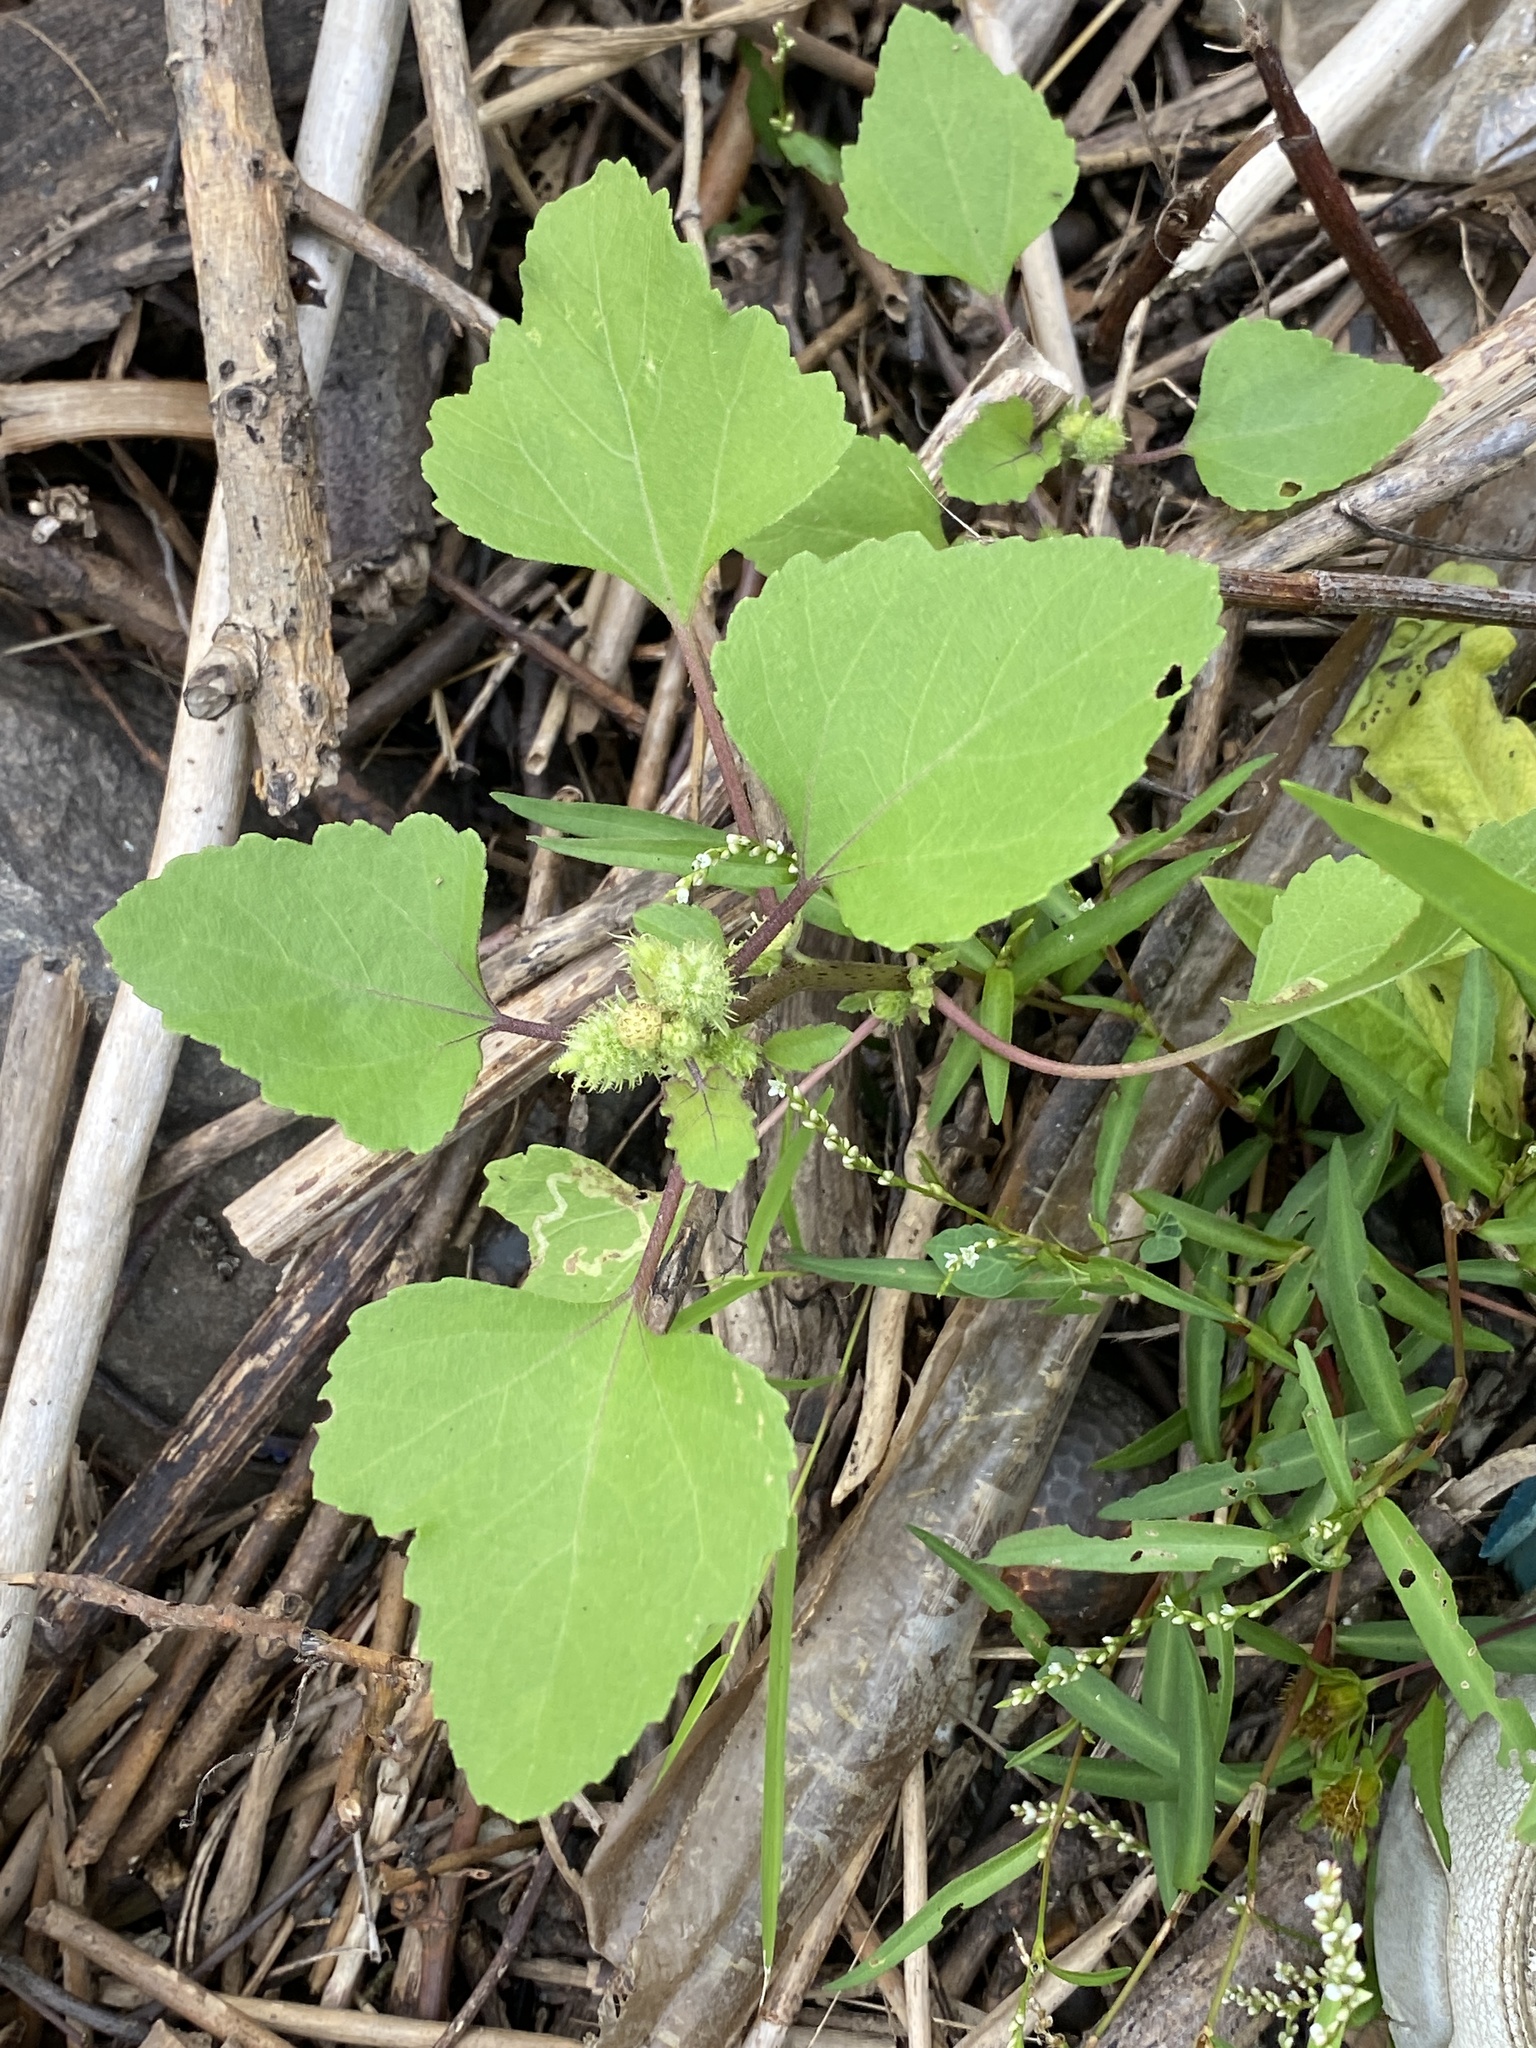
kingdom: Plantae
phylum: Tracheophyta
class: Magnoliopsida
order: Asterales
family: Asteraceae
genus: Xanthium
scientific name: Xanthium strumarium
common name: Rough cocklebur
